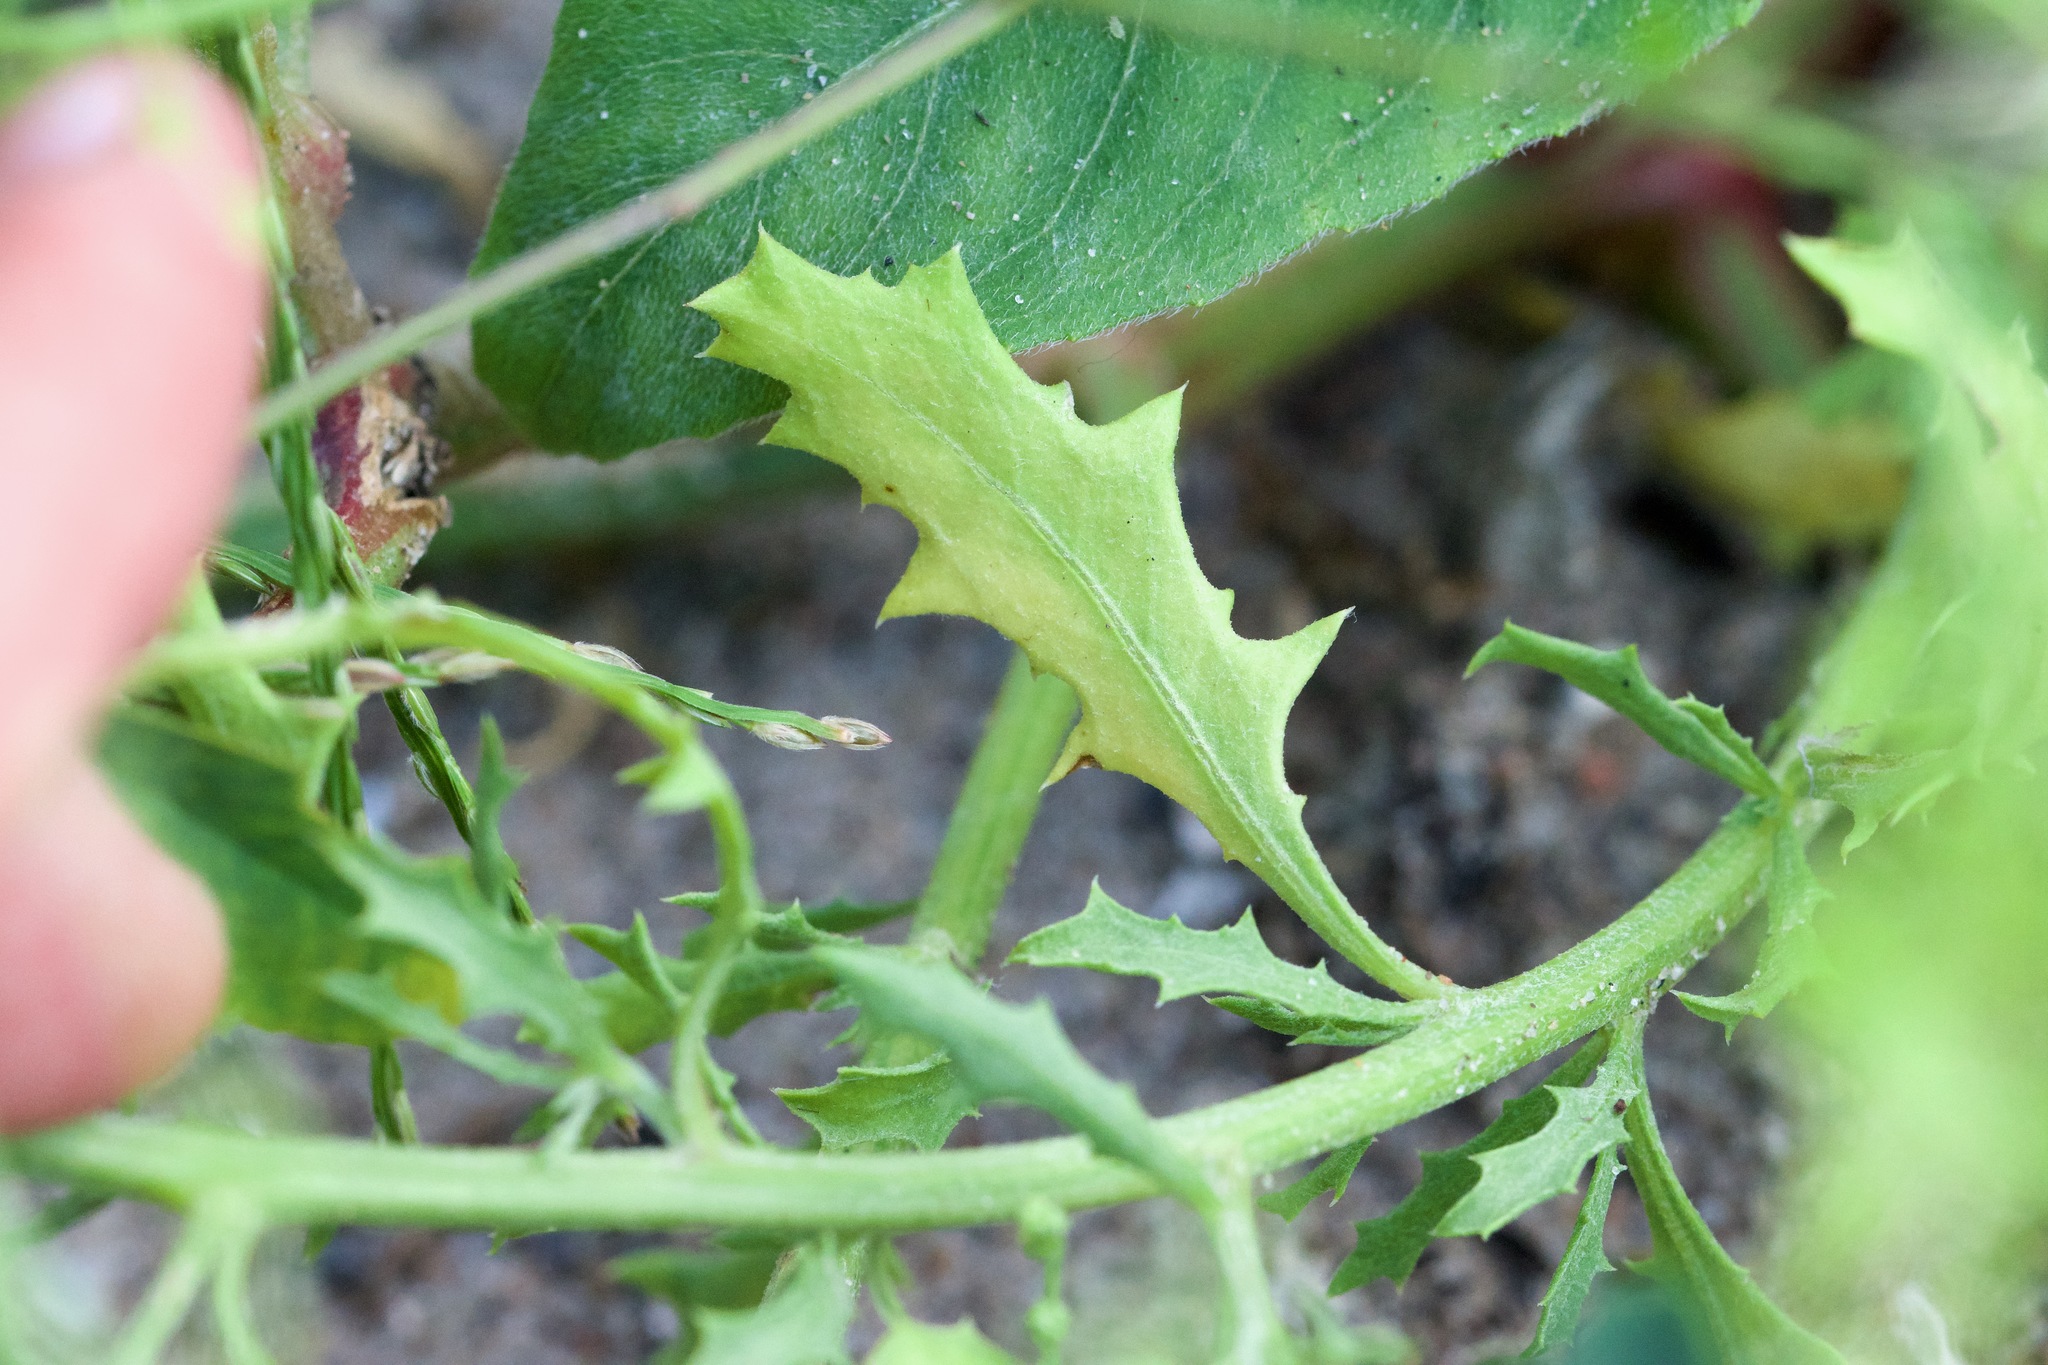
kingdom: Plantae
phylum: Tracheophyta
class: Magnoliopsida
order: Caryophyllales
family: Amaranthaceae
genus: Dysphania
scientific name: Dysphania atriplicifolia
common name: Plains tumbleweed
